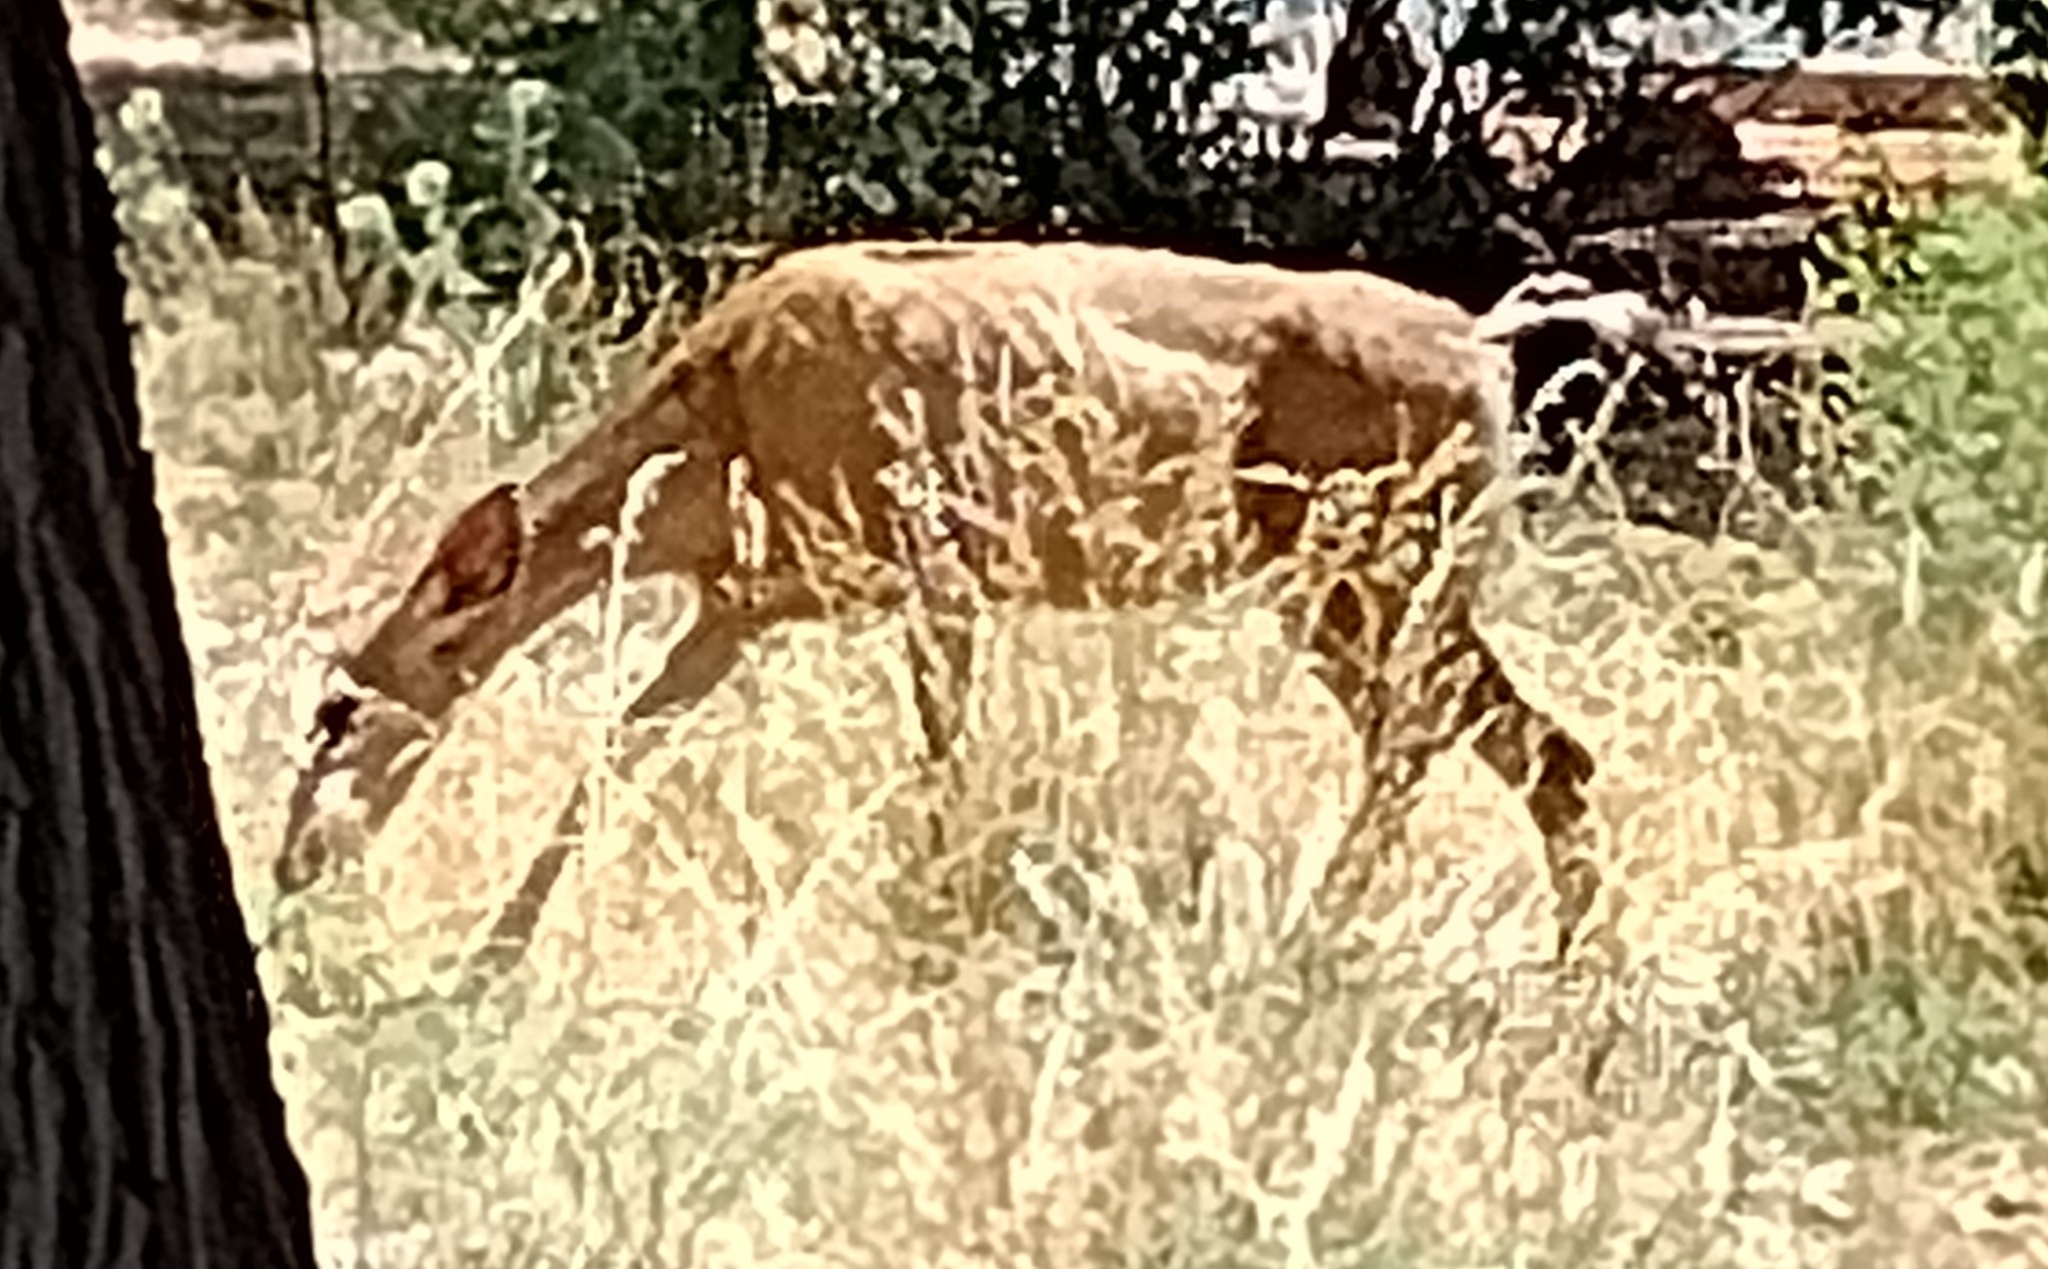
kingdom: Animalia
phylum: Chordata
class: Mammalia
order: Artiodactyla
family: Cervidae
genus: Odocoileus
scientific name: Odocoileus hemionus
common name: Mule deer
